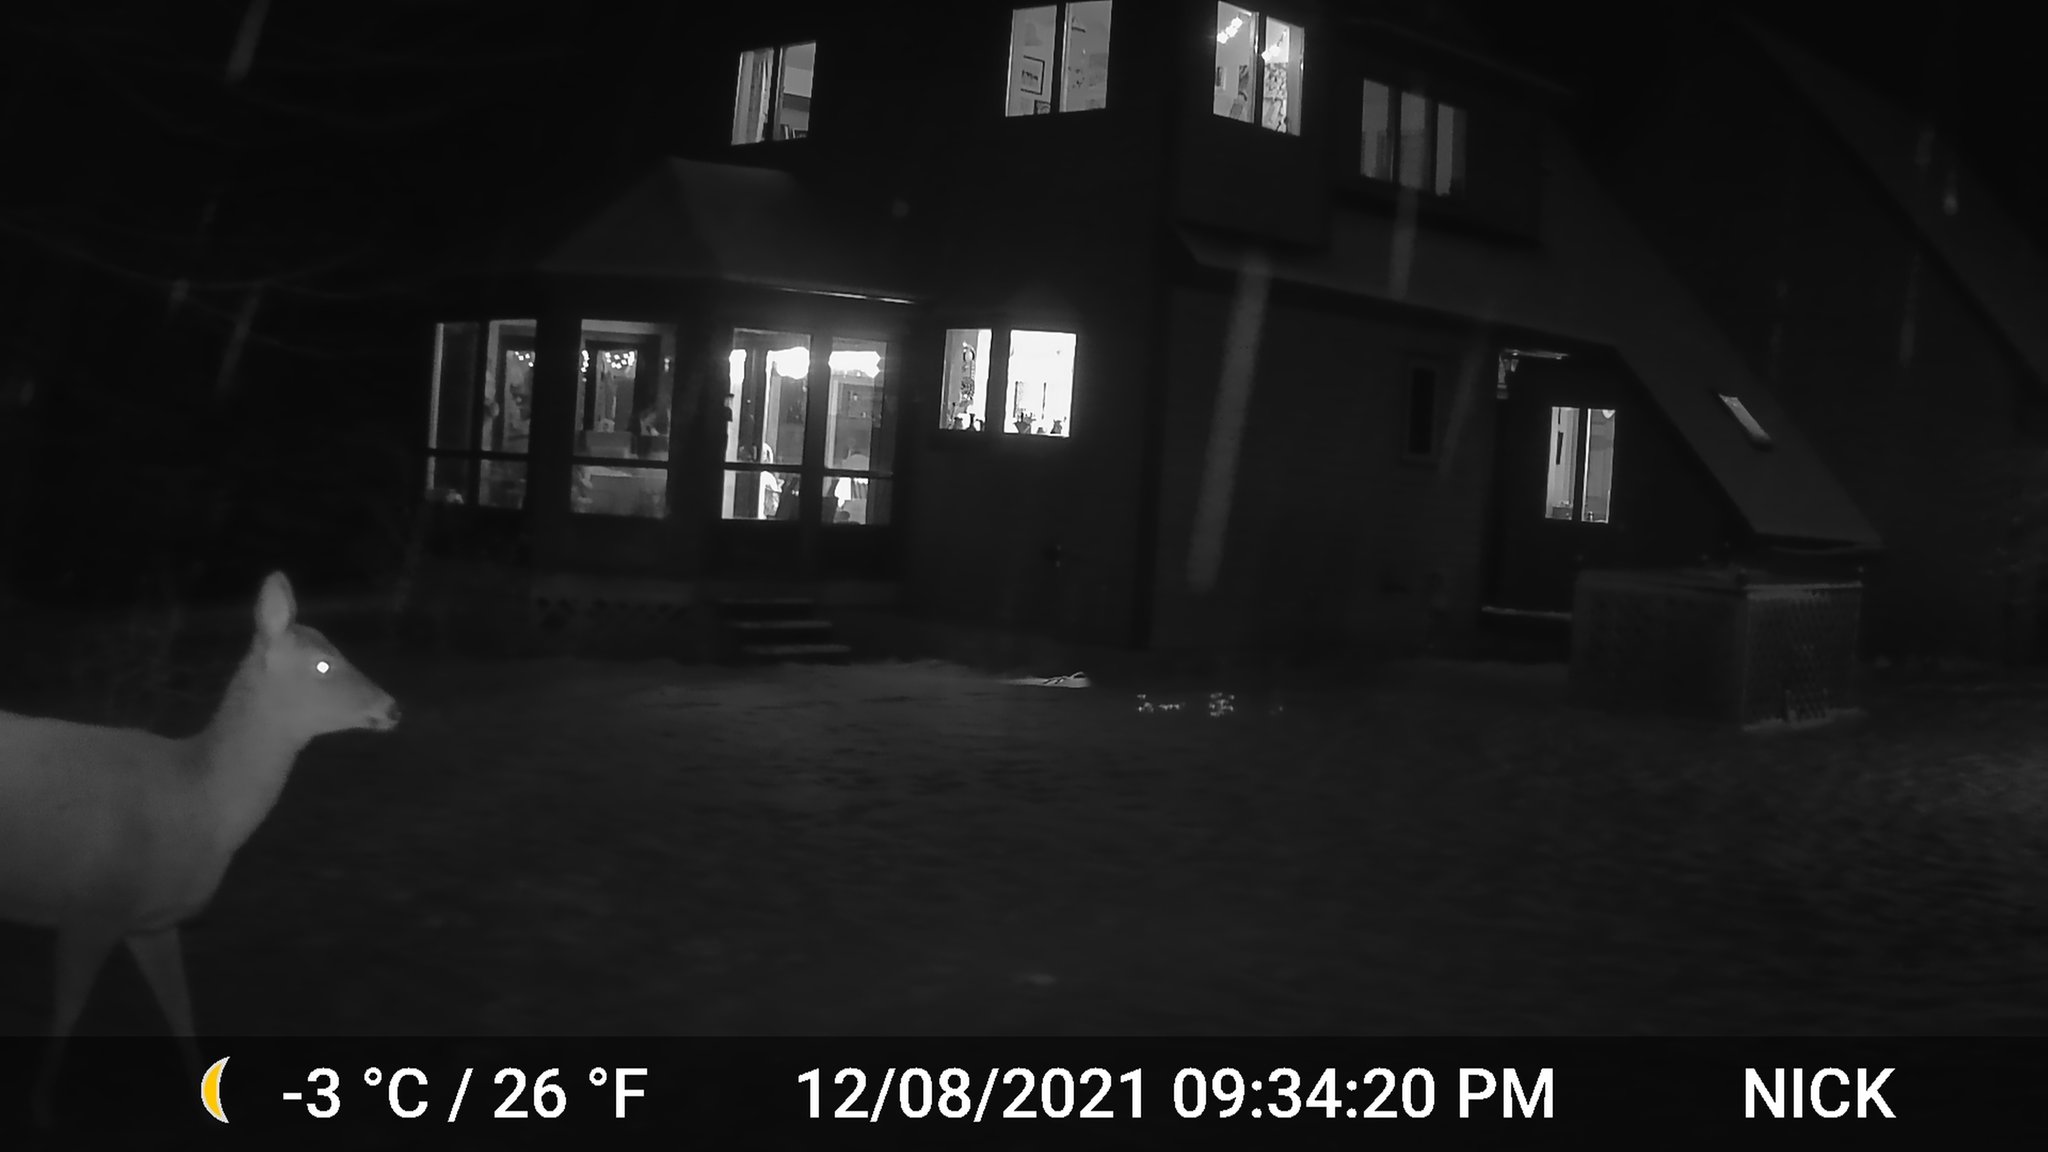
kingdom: Animalia
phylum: Chordata
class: Mammalia
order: Artiodactyla
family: Cervidae
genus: Odocoileus
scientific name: Odocoileus virginianus
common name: White-tailed deer
